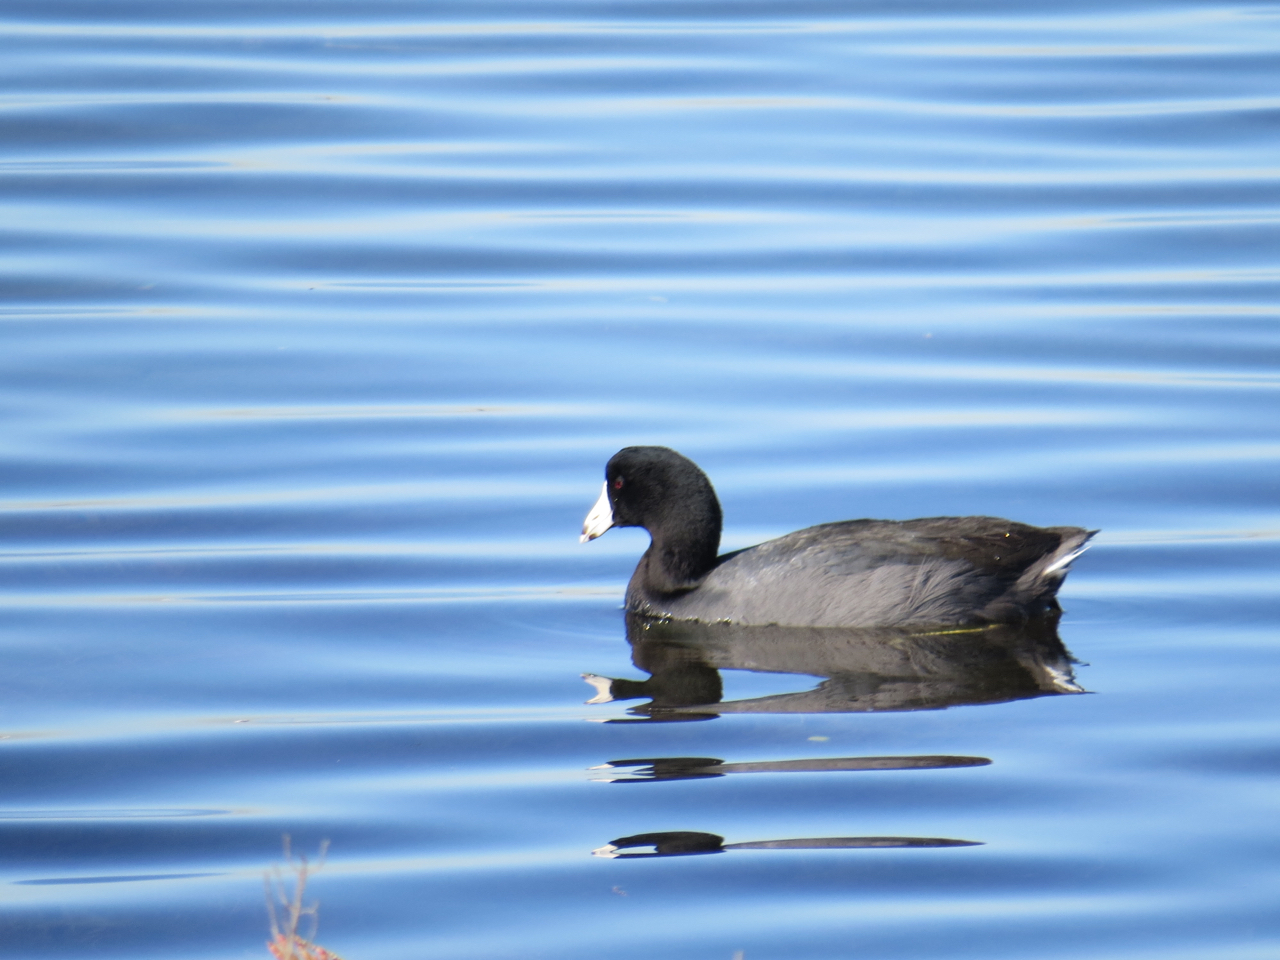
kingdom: Animalia
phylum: Chordata
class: Aves
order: Gruiformes
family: Rallidae
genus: Fulica
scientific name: Fulica americana
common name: American coot
